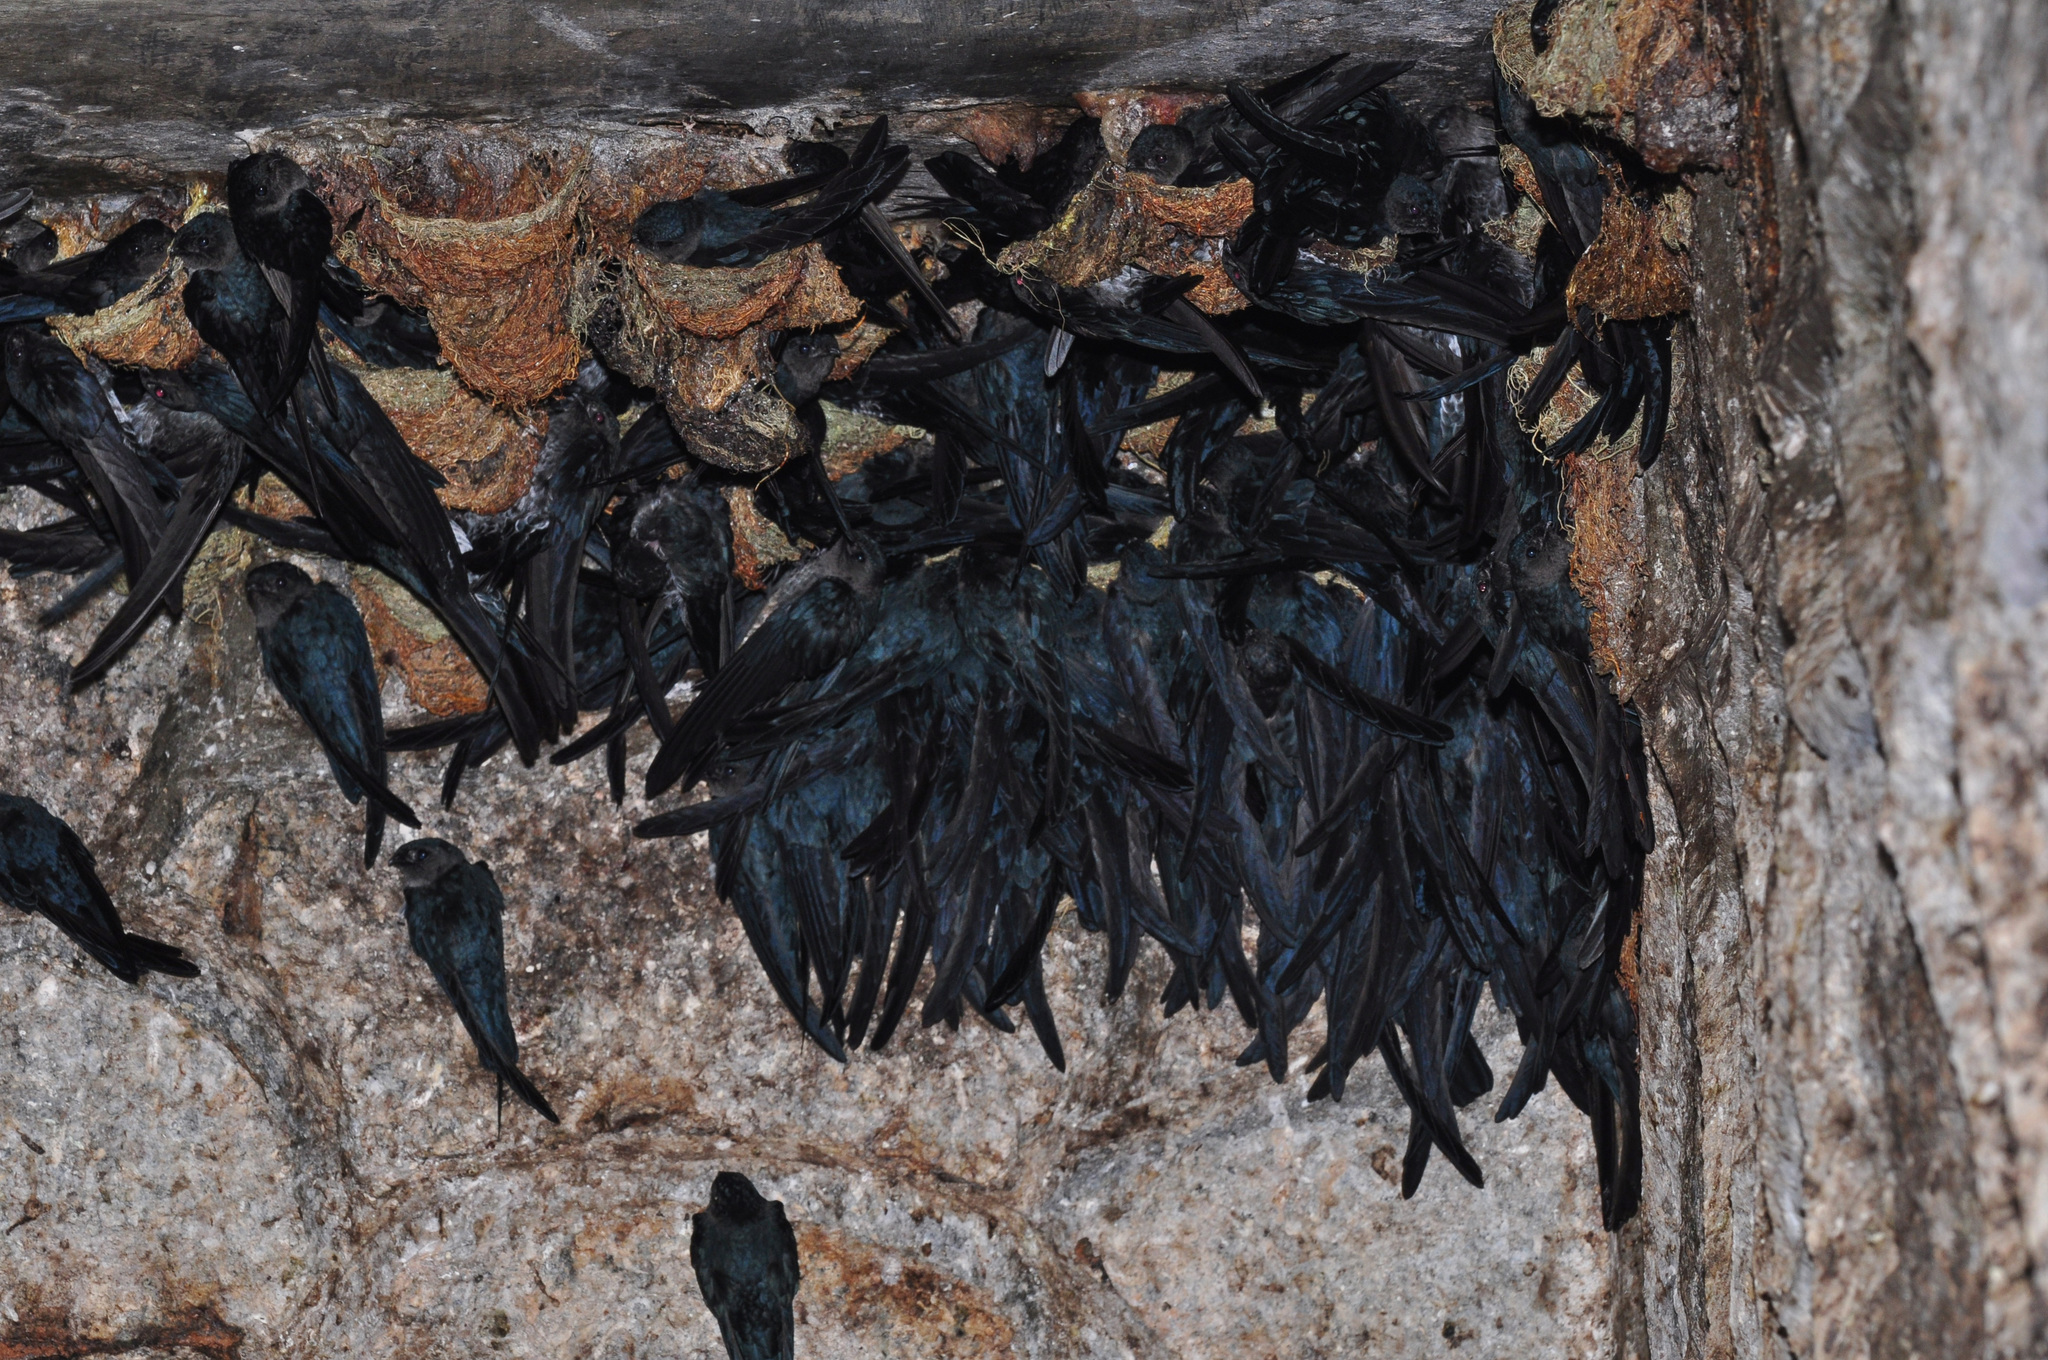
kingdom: Animalia
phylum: Chordata
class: Aves
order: Apodiformes
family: Apodidae
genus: Collocalia
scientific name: Collocalia affinis
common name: Plume-toed swiftlet
